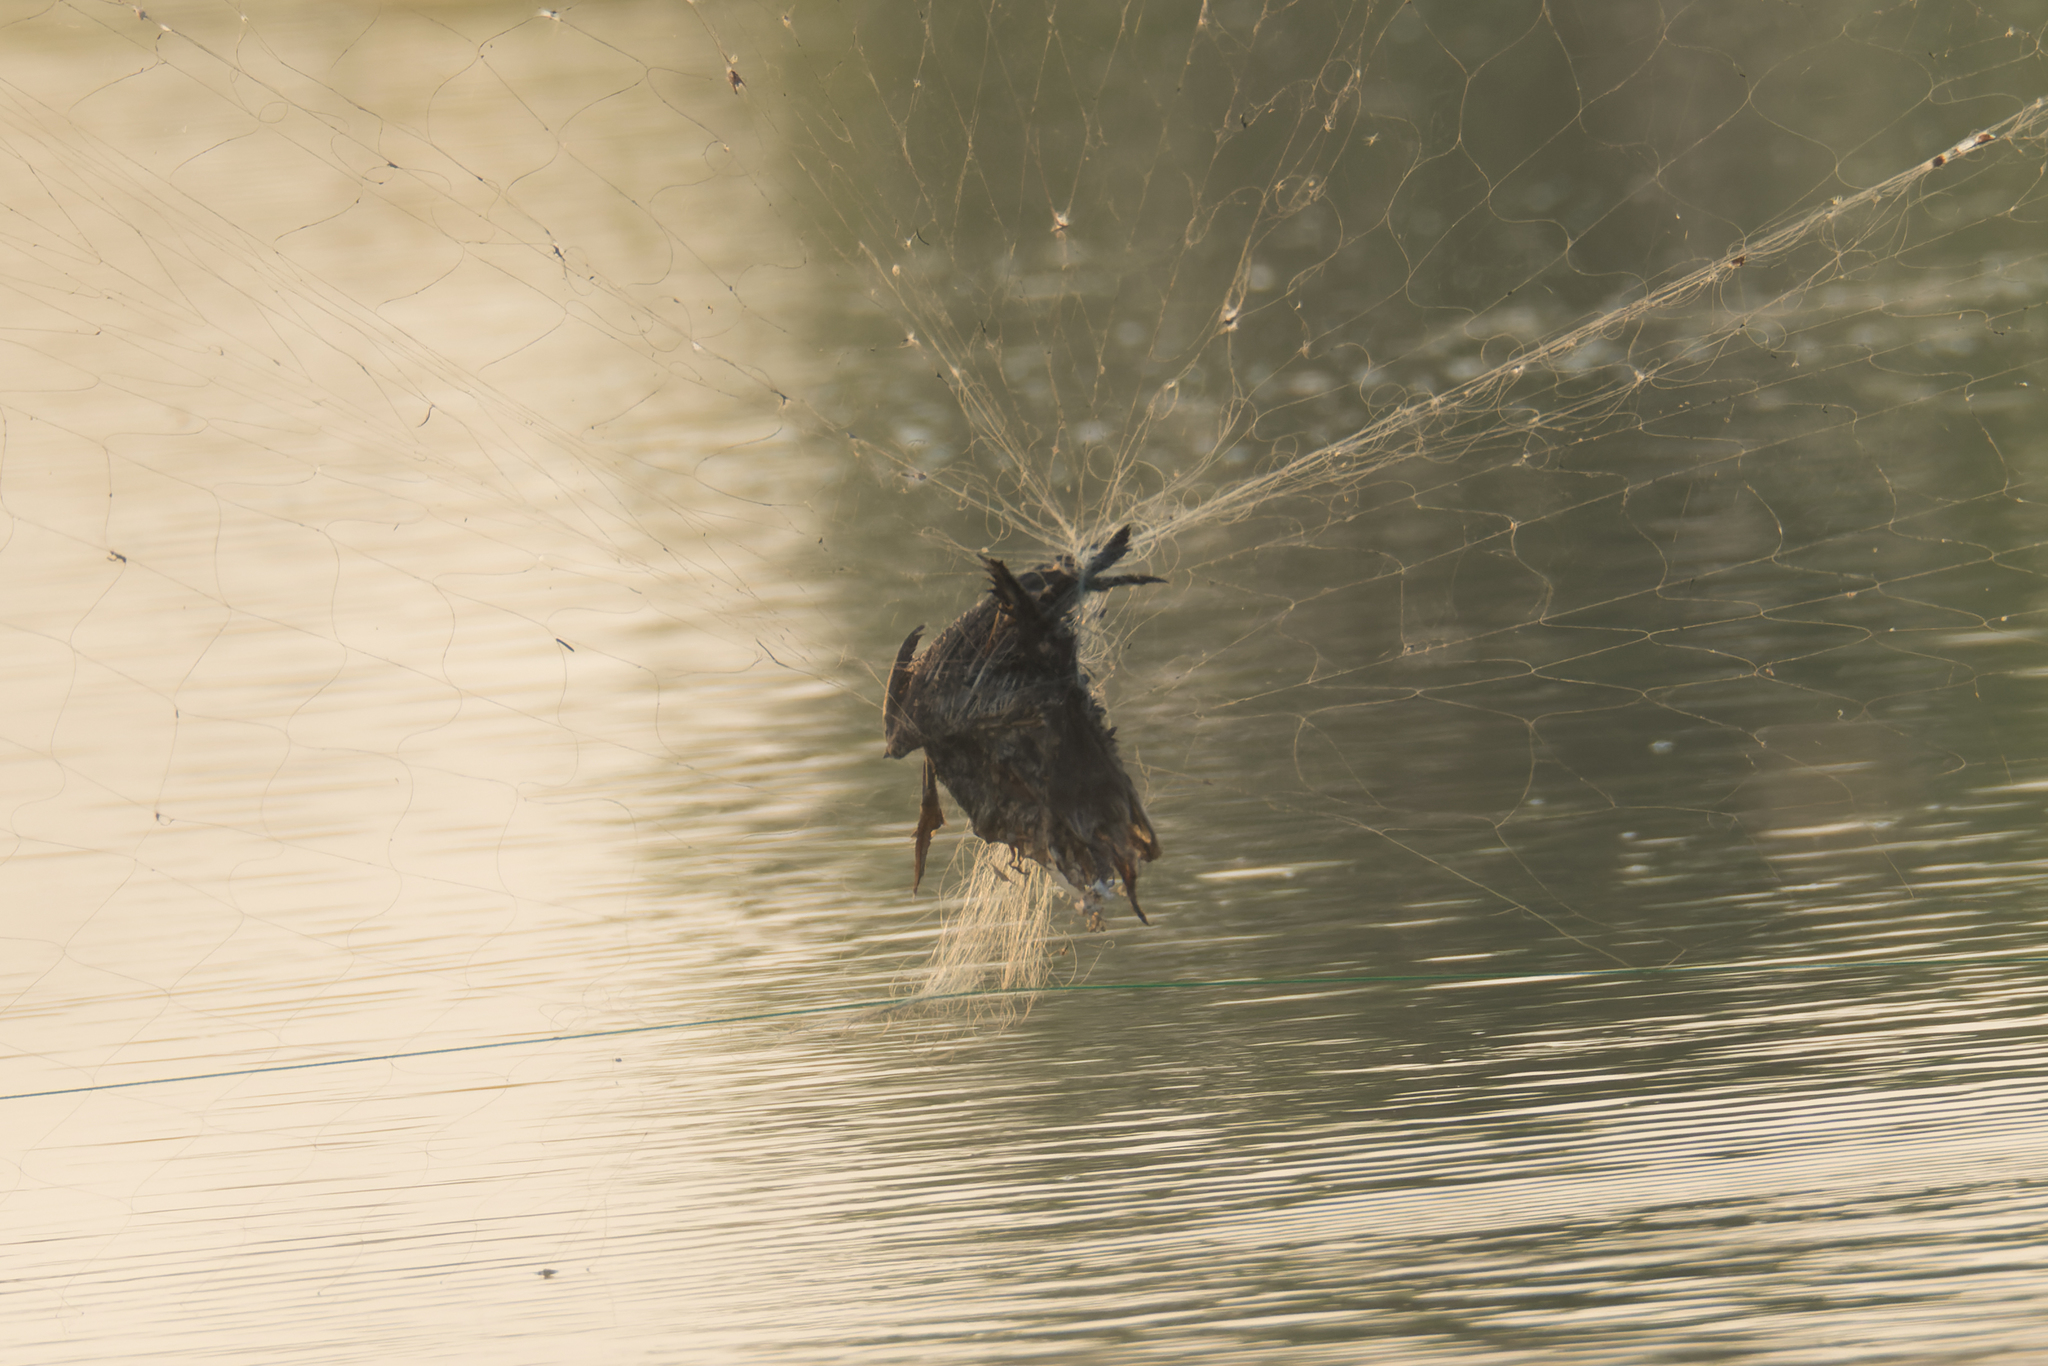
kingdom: Animalia
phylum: Chordata
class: Aves
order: Pelecaniformes
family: Ardeidae
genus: Nycticorax
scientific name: Nycticorax nycticorax
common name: Black-crowned night heron
